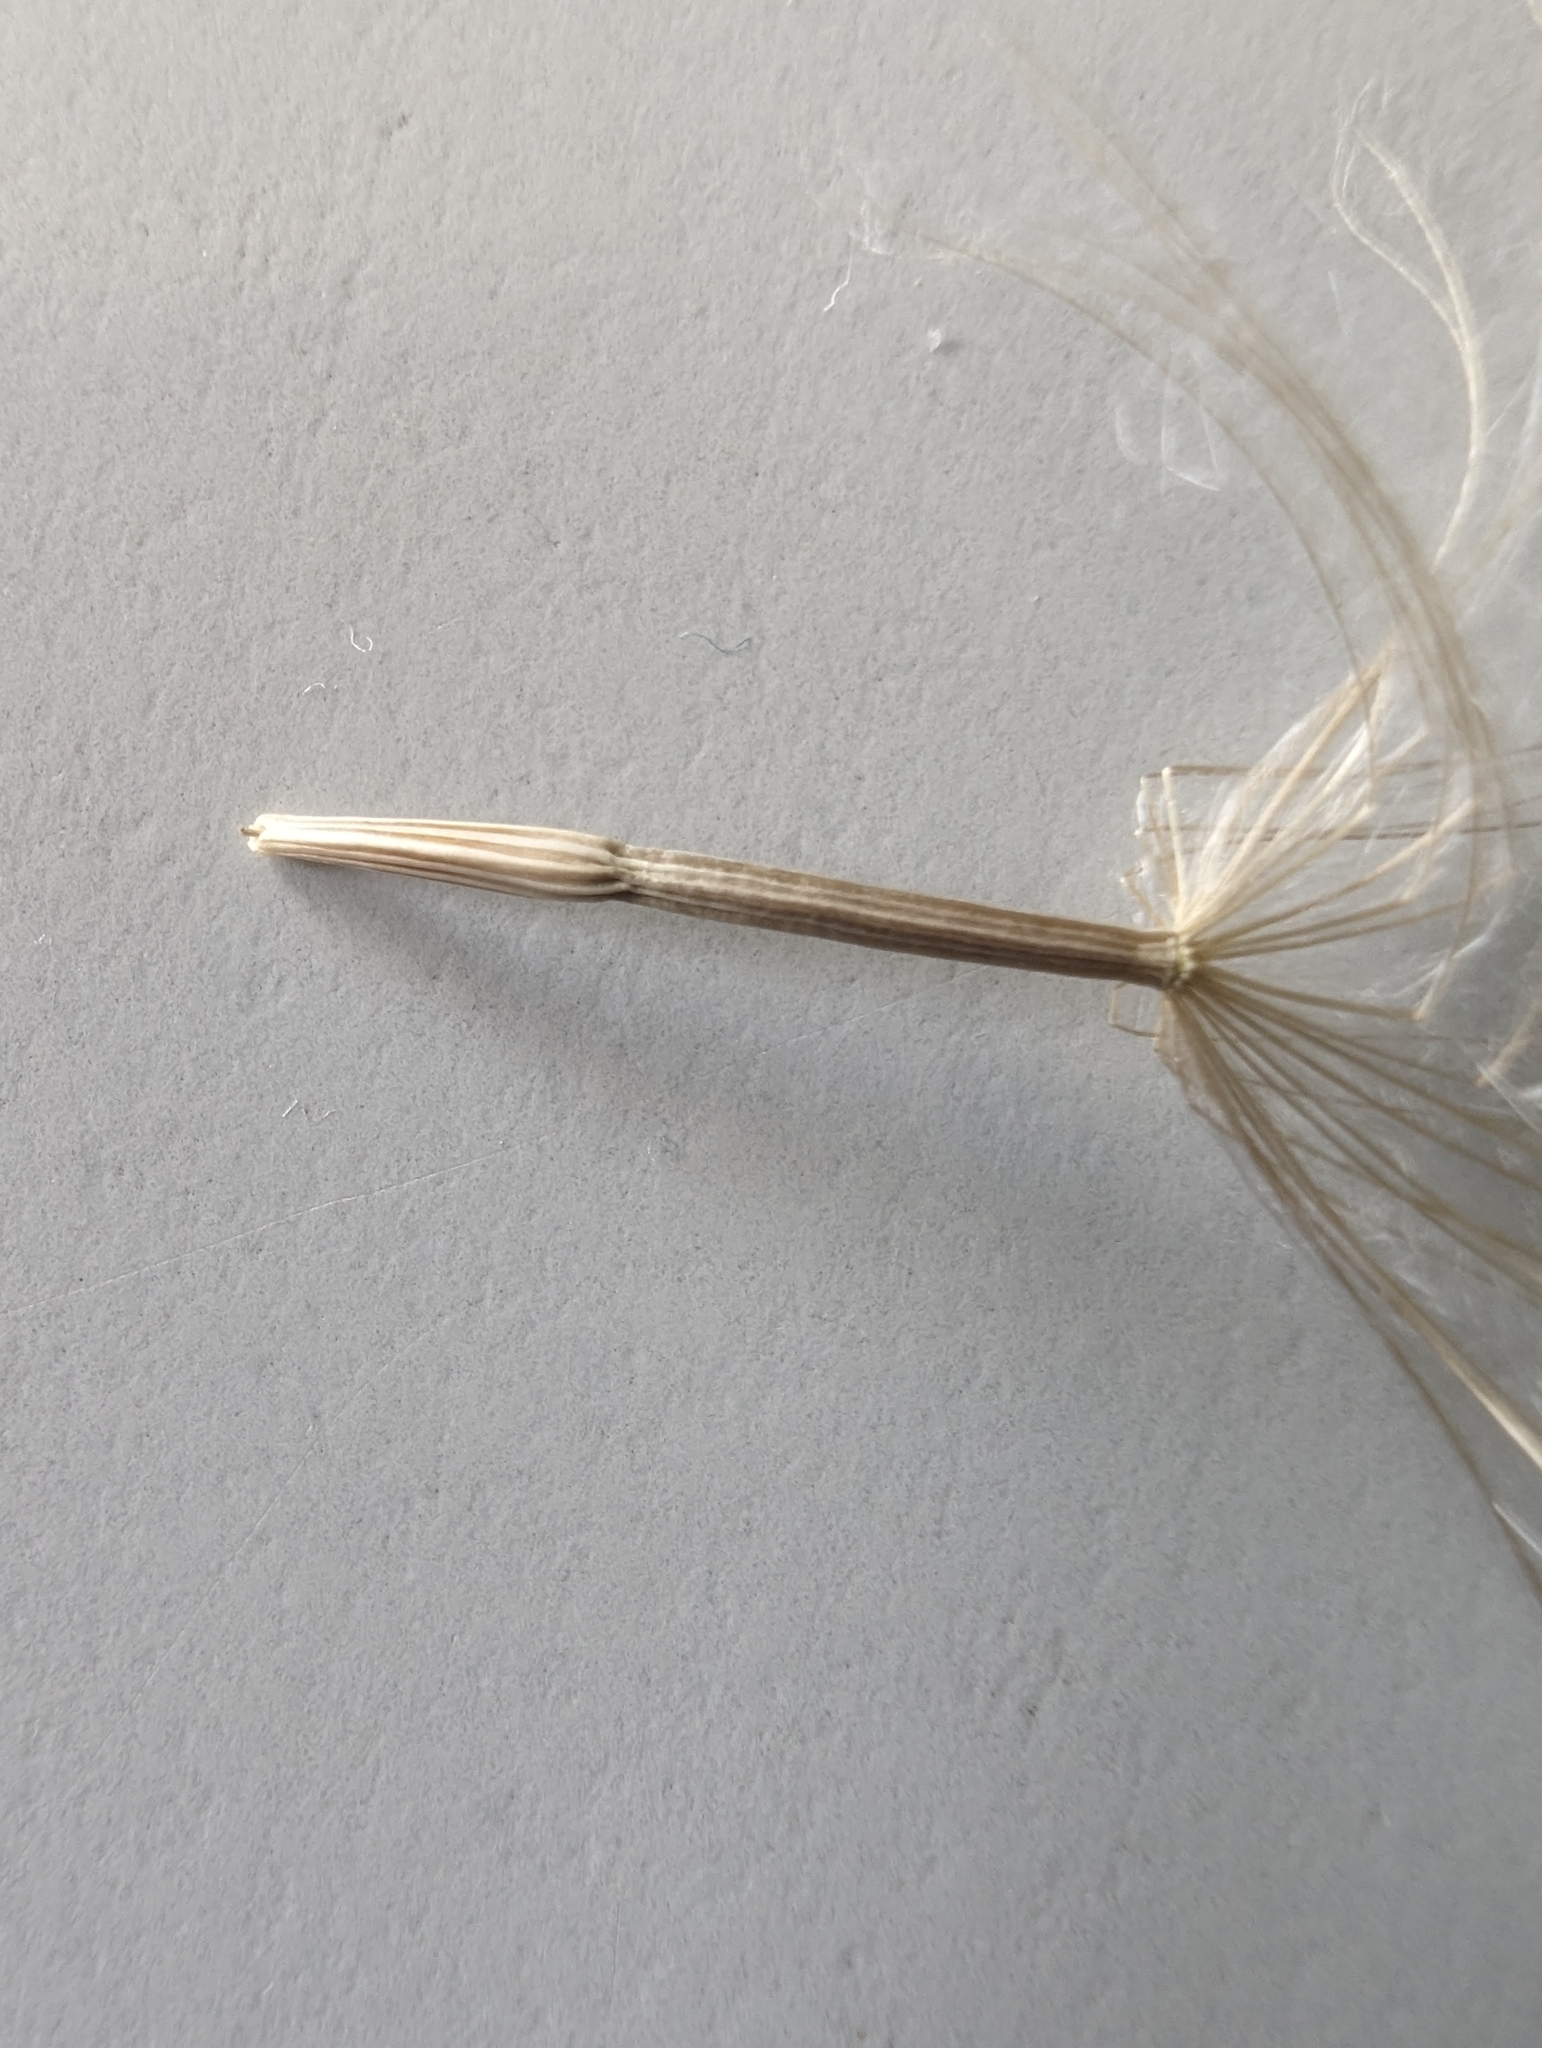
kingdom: Plantae
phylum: Tracheophyta
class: Magnoliopsida
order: Asterales
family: Asteraceae
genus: Scorzonera
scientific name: Scorzonera laciniata
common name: Cutleaf vipergrass
